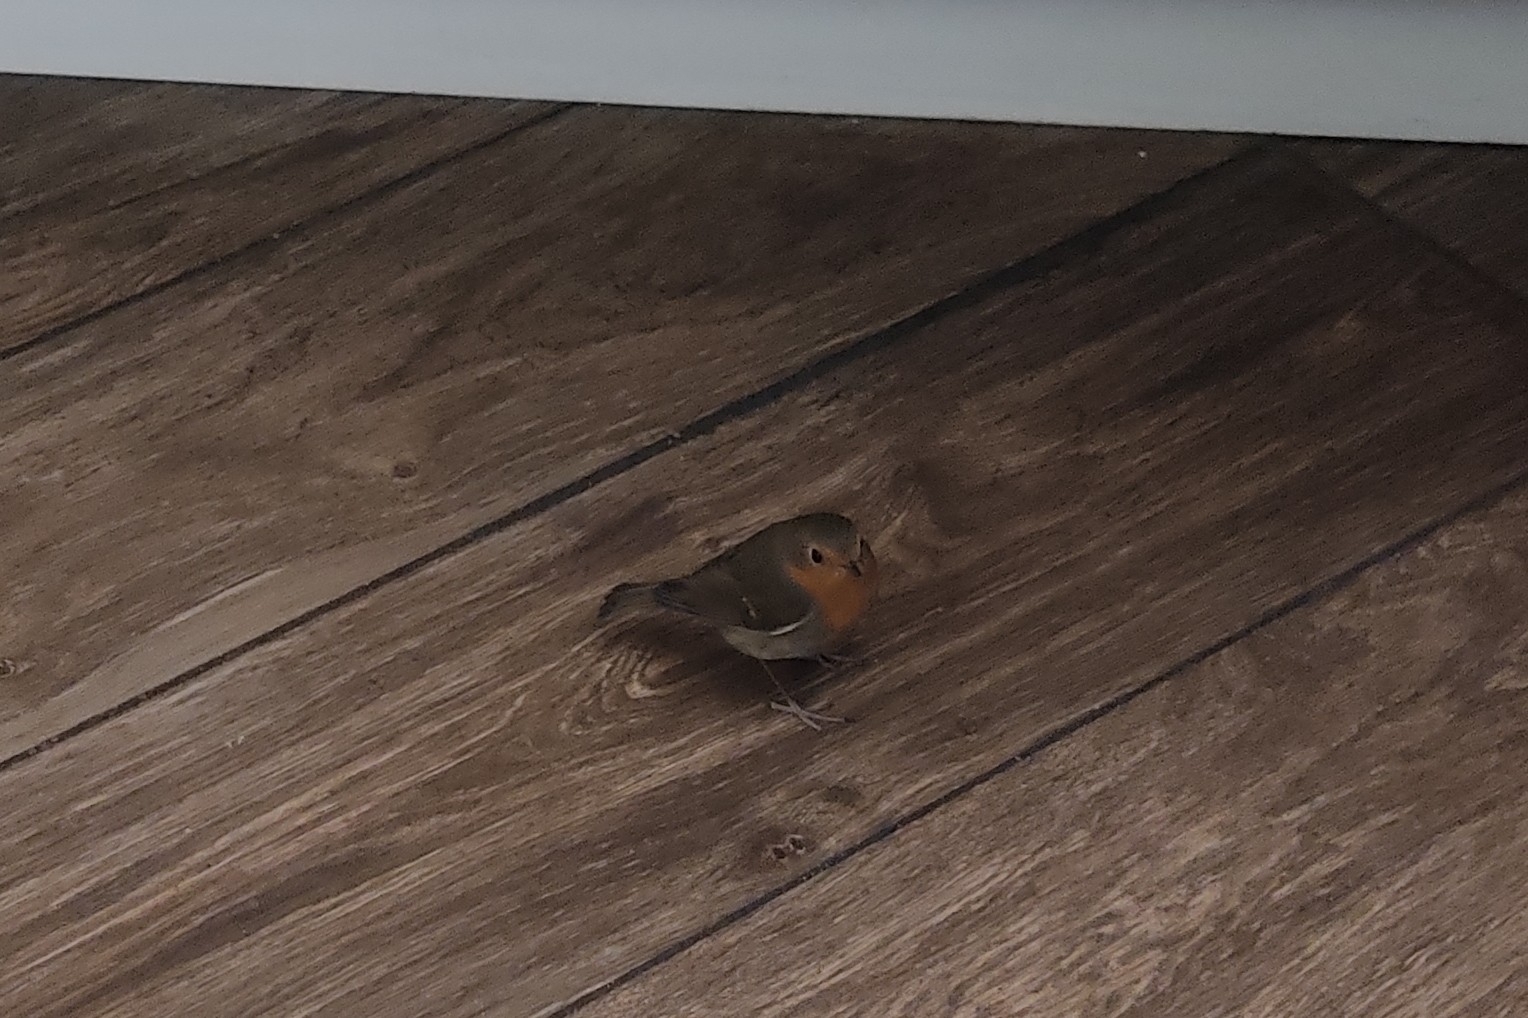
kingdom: Animalia
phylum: Chordata
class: Aves
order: Passeriformes
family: Muscicapidae
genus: Erithacus
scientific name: Erithacus rubecula
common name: European robin
